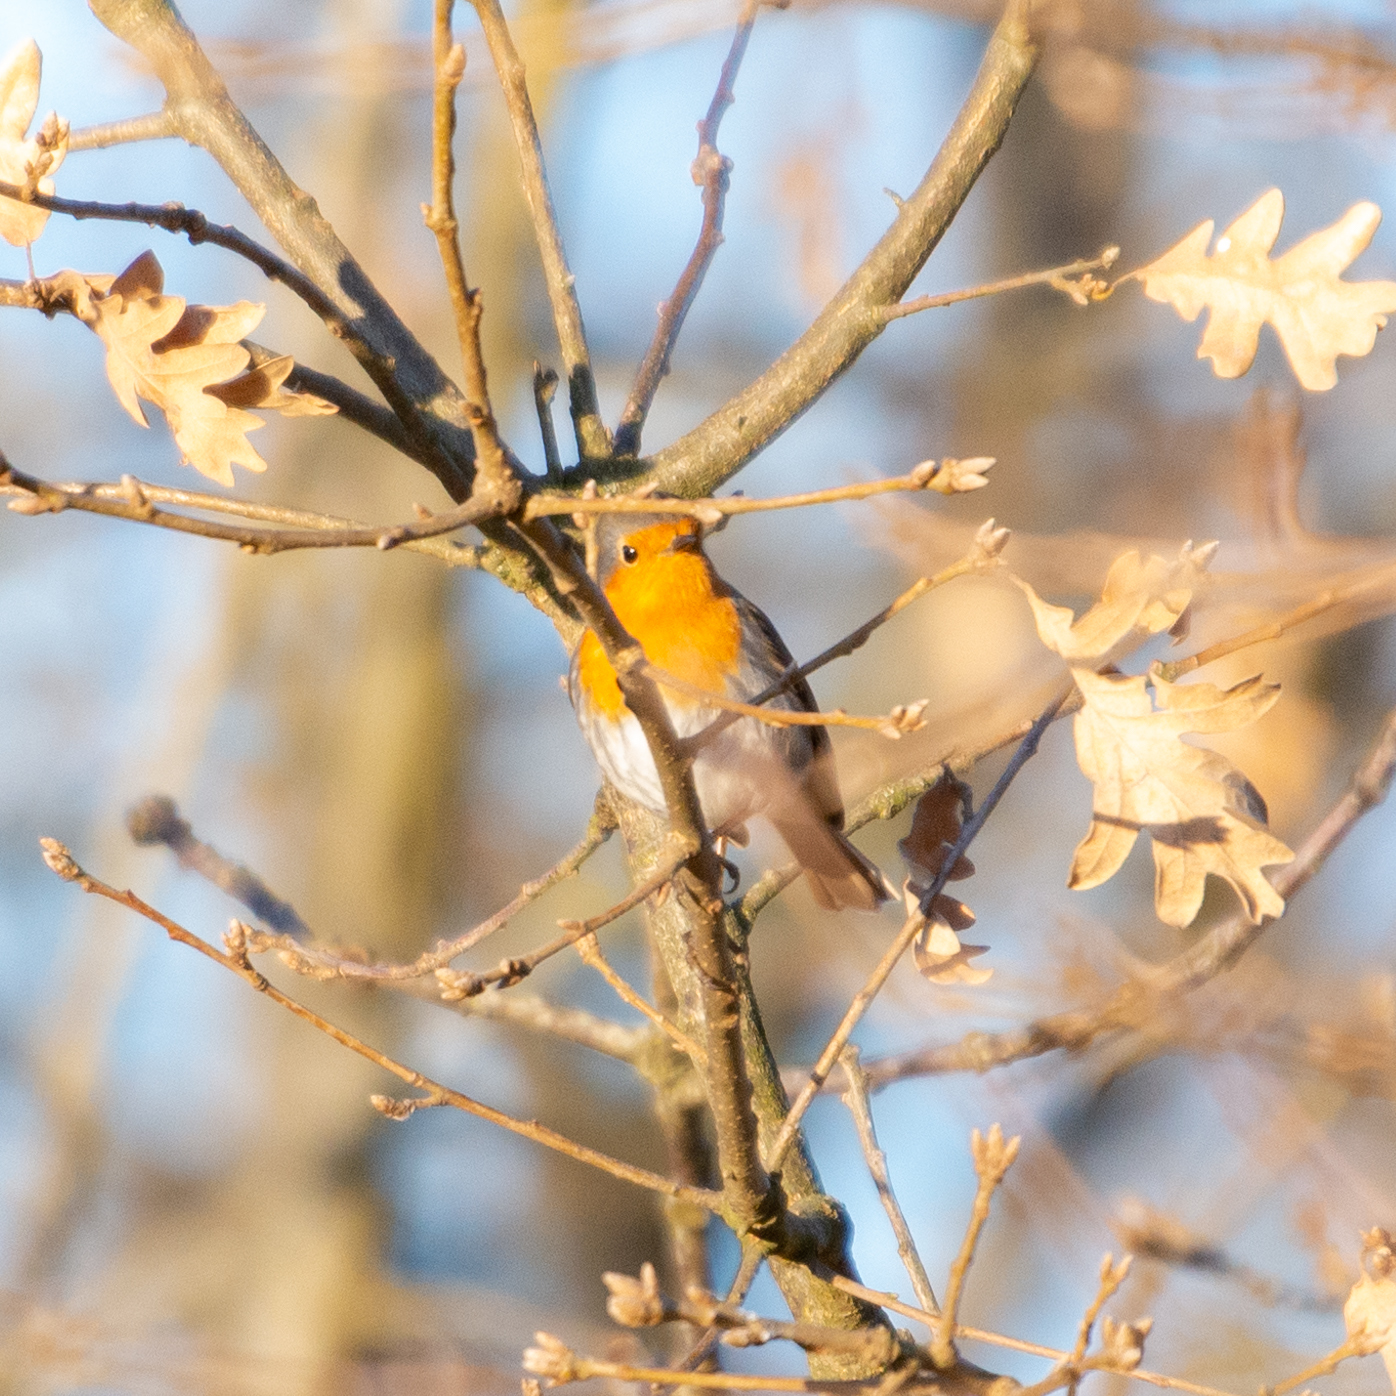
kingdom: Animalia
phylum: Chordata
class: Aves
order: Passeriformes
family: Muscicapidae
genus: Erithacus
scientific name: Erithacus rubecula
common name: European robin
